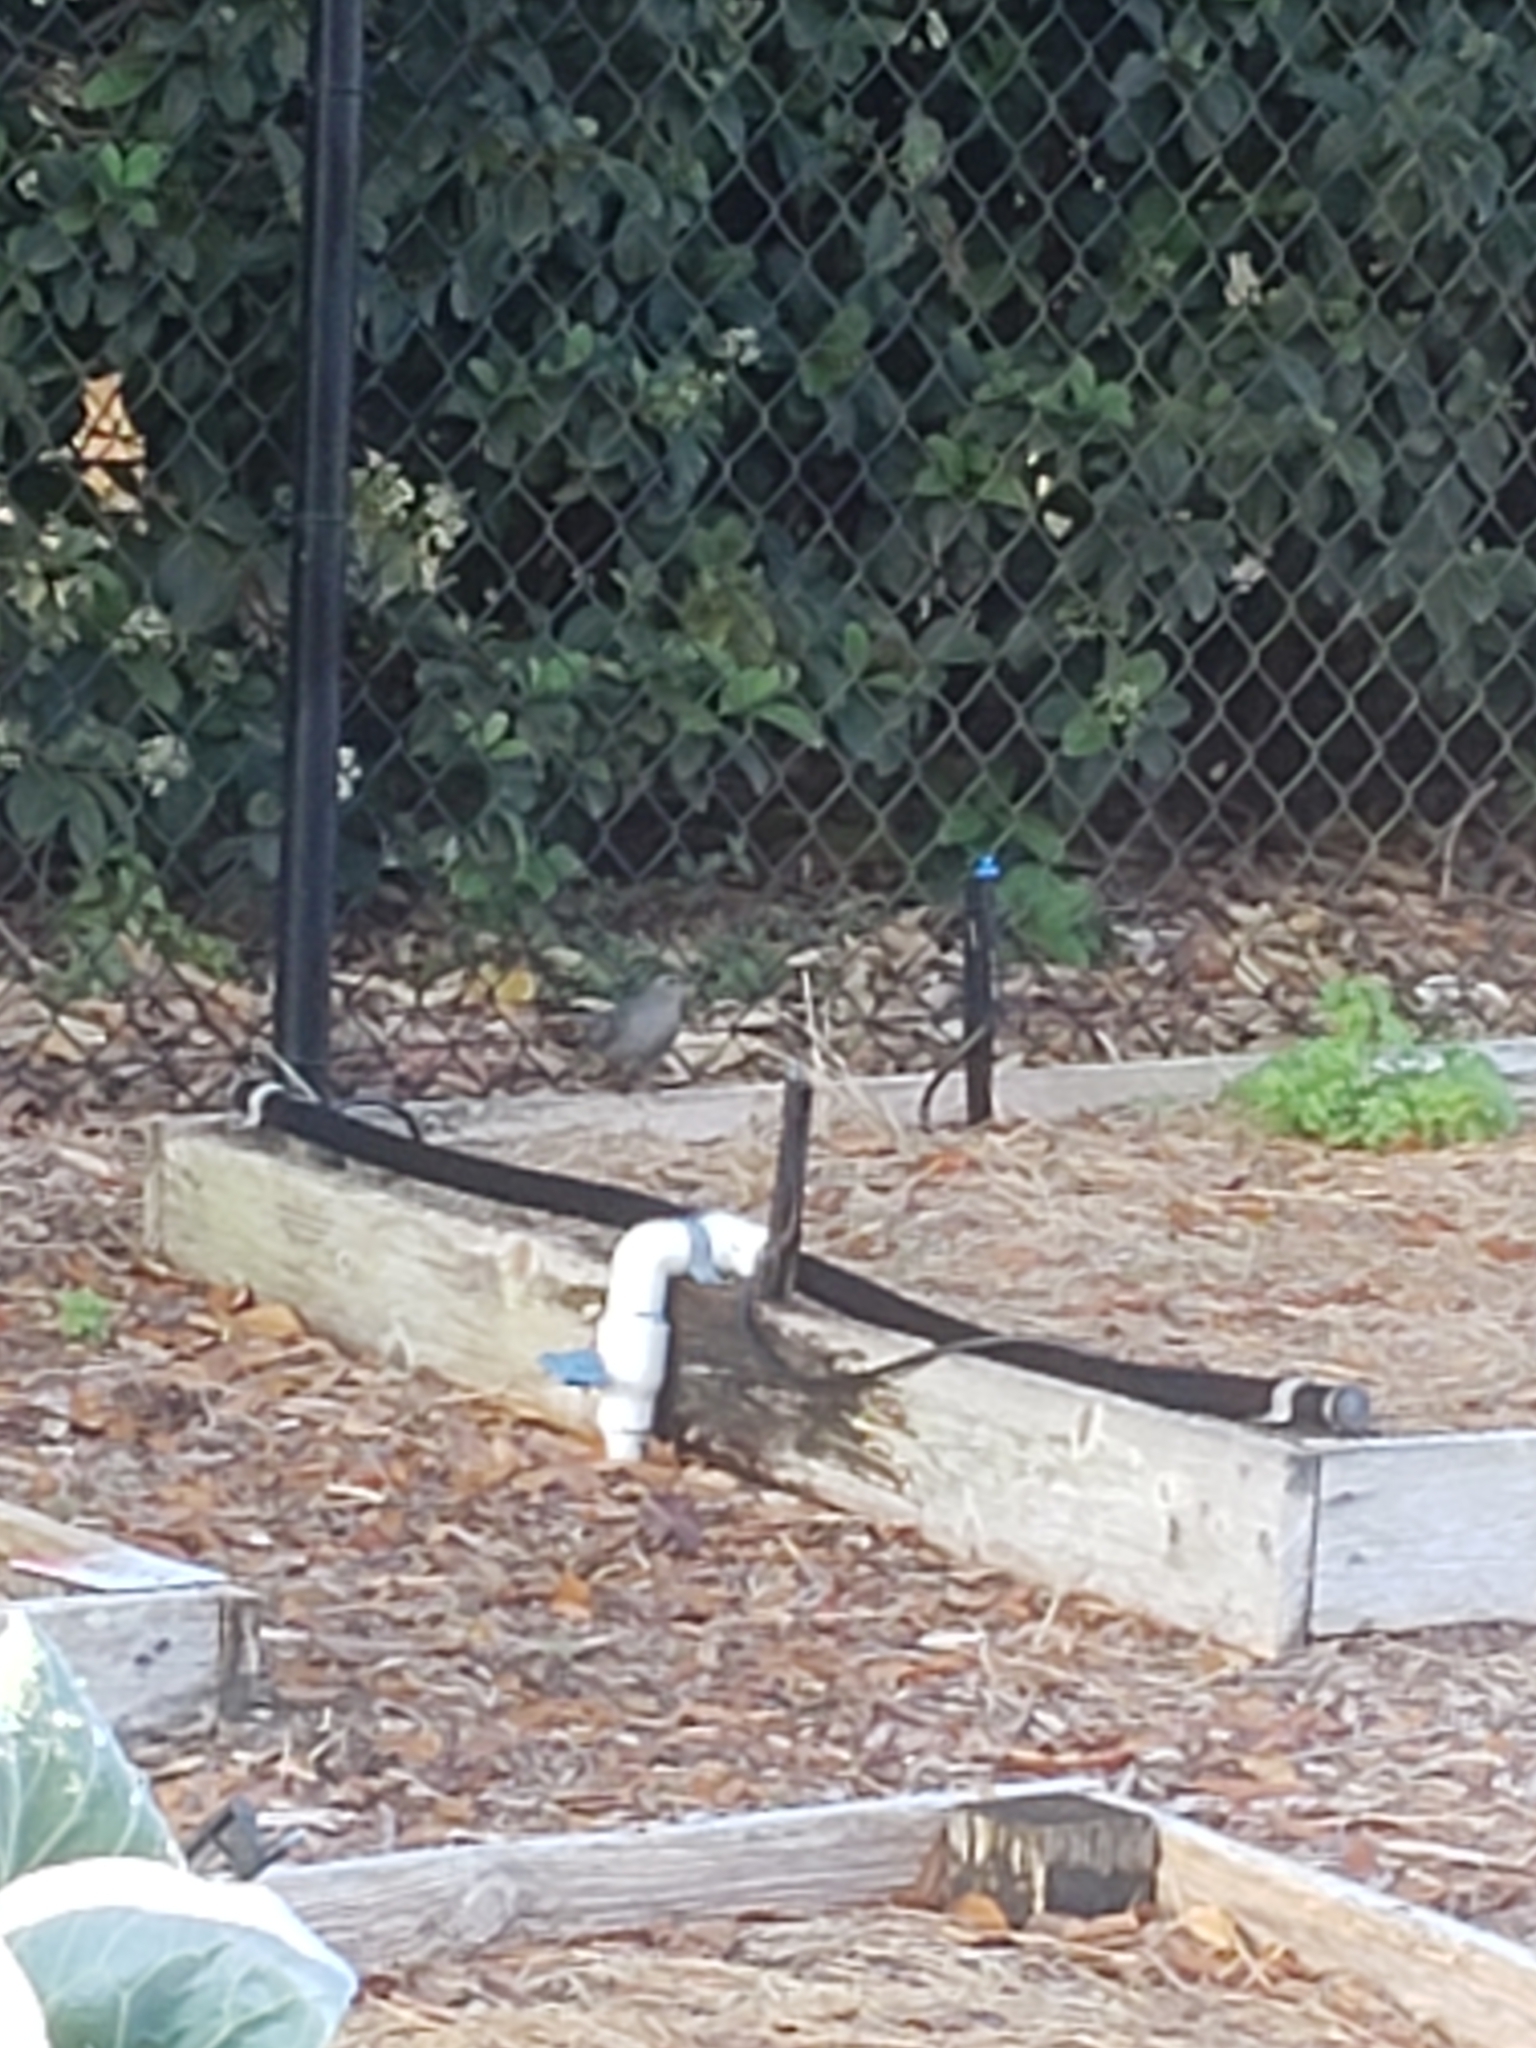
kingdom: Animalia
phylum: Chordata
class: Aves
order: Passeriformes
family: Mimidae
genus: Dumetella
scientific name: Dumetella carolinensis
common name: Gray catbird
